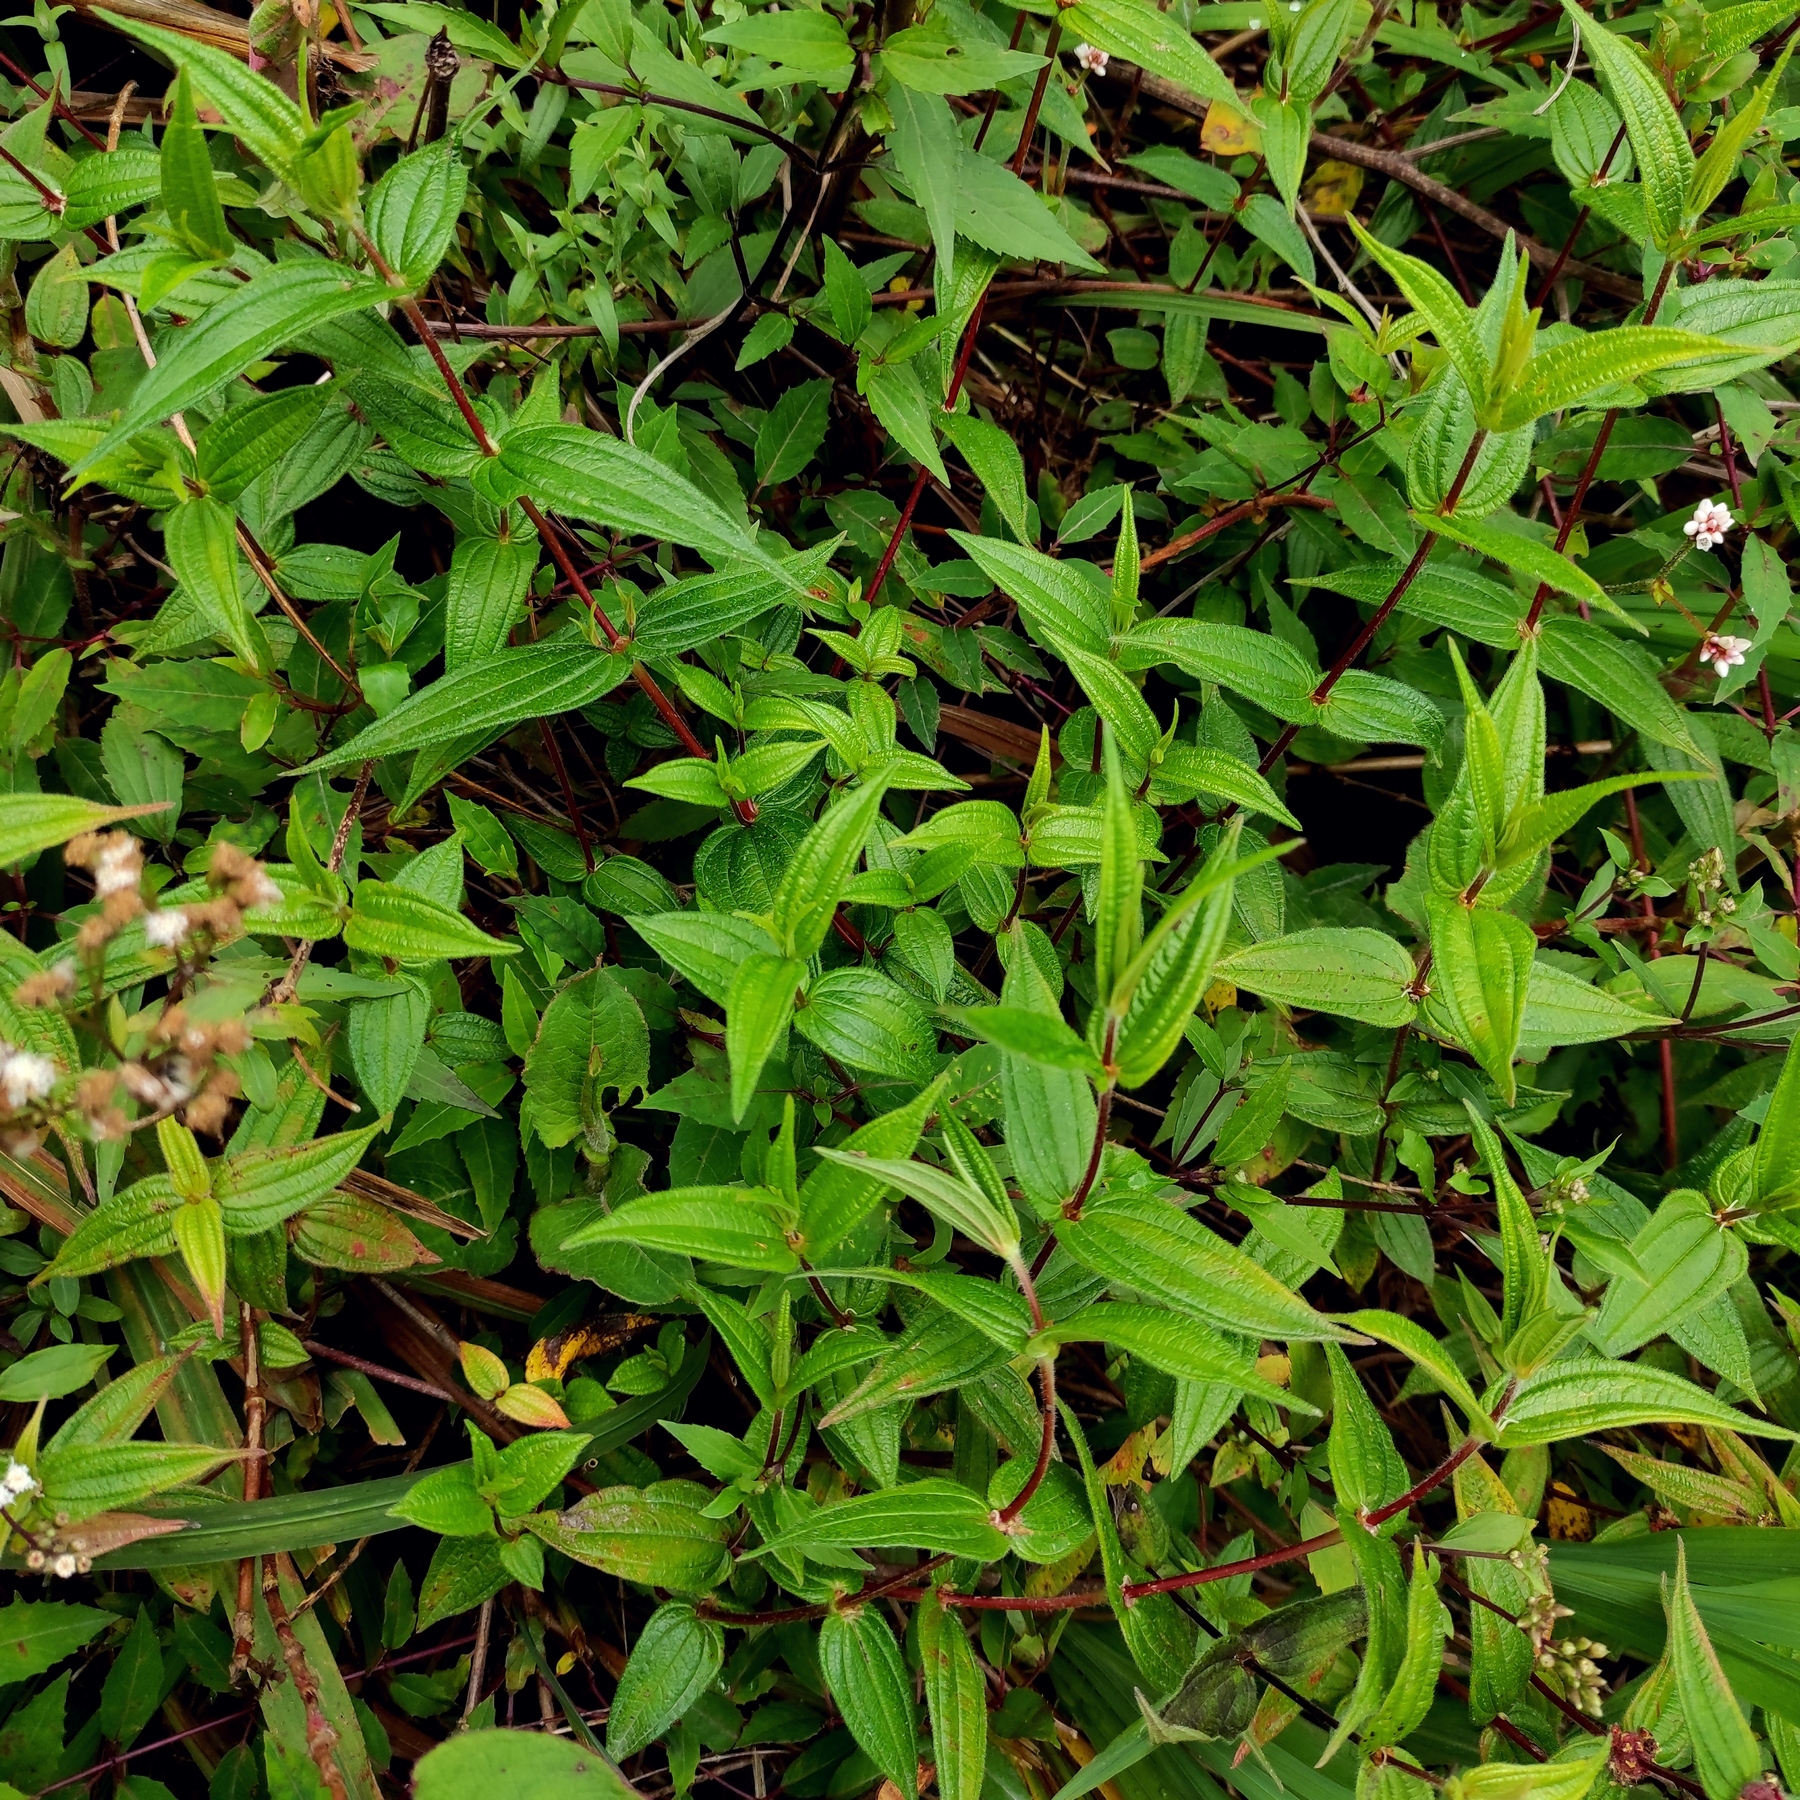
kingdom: Plantae
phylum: Tracheophyta
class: Magnoliopsida
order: Rosales
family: Urticaceae
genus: Gonostegia
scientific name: Gonostegia triandra
